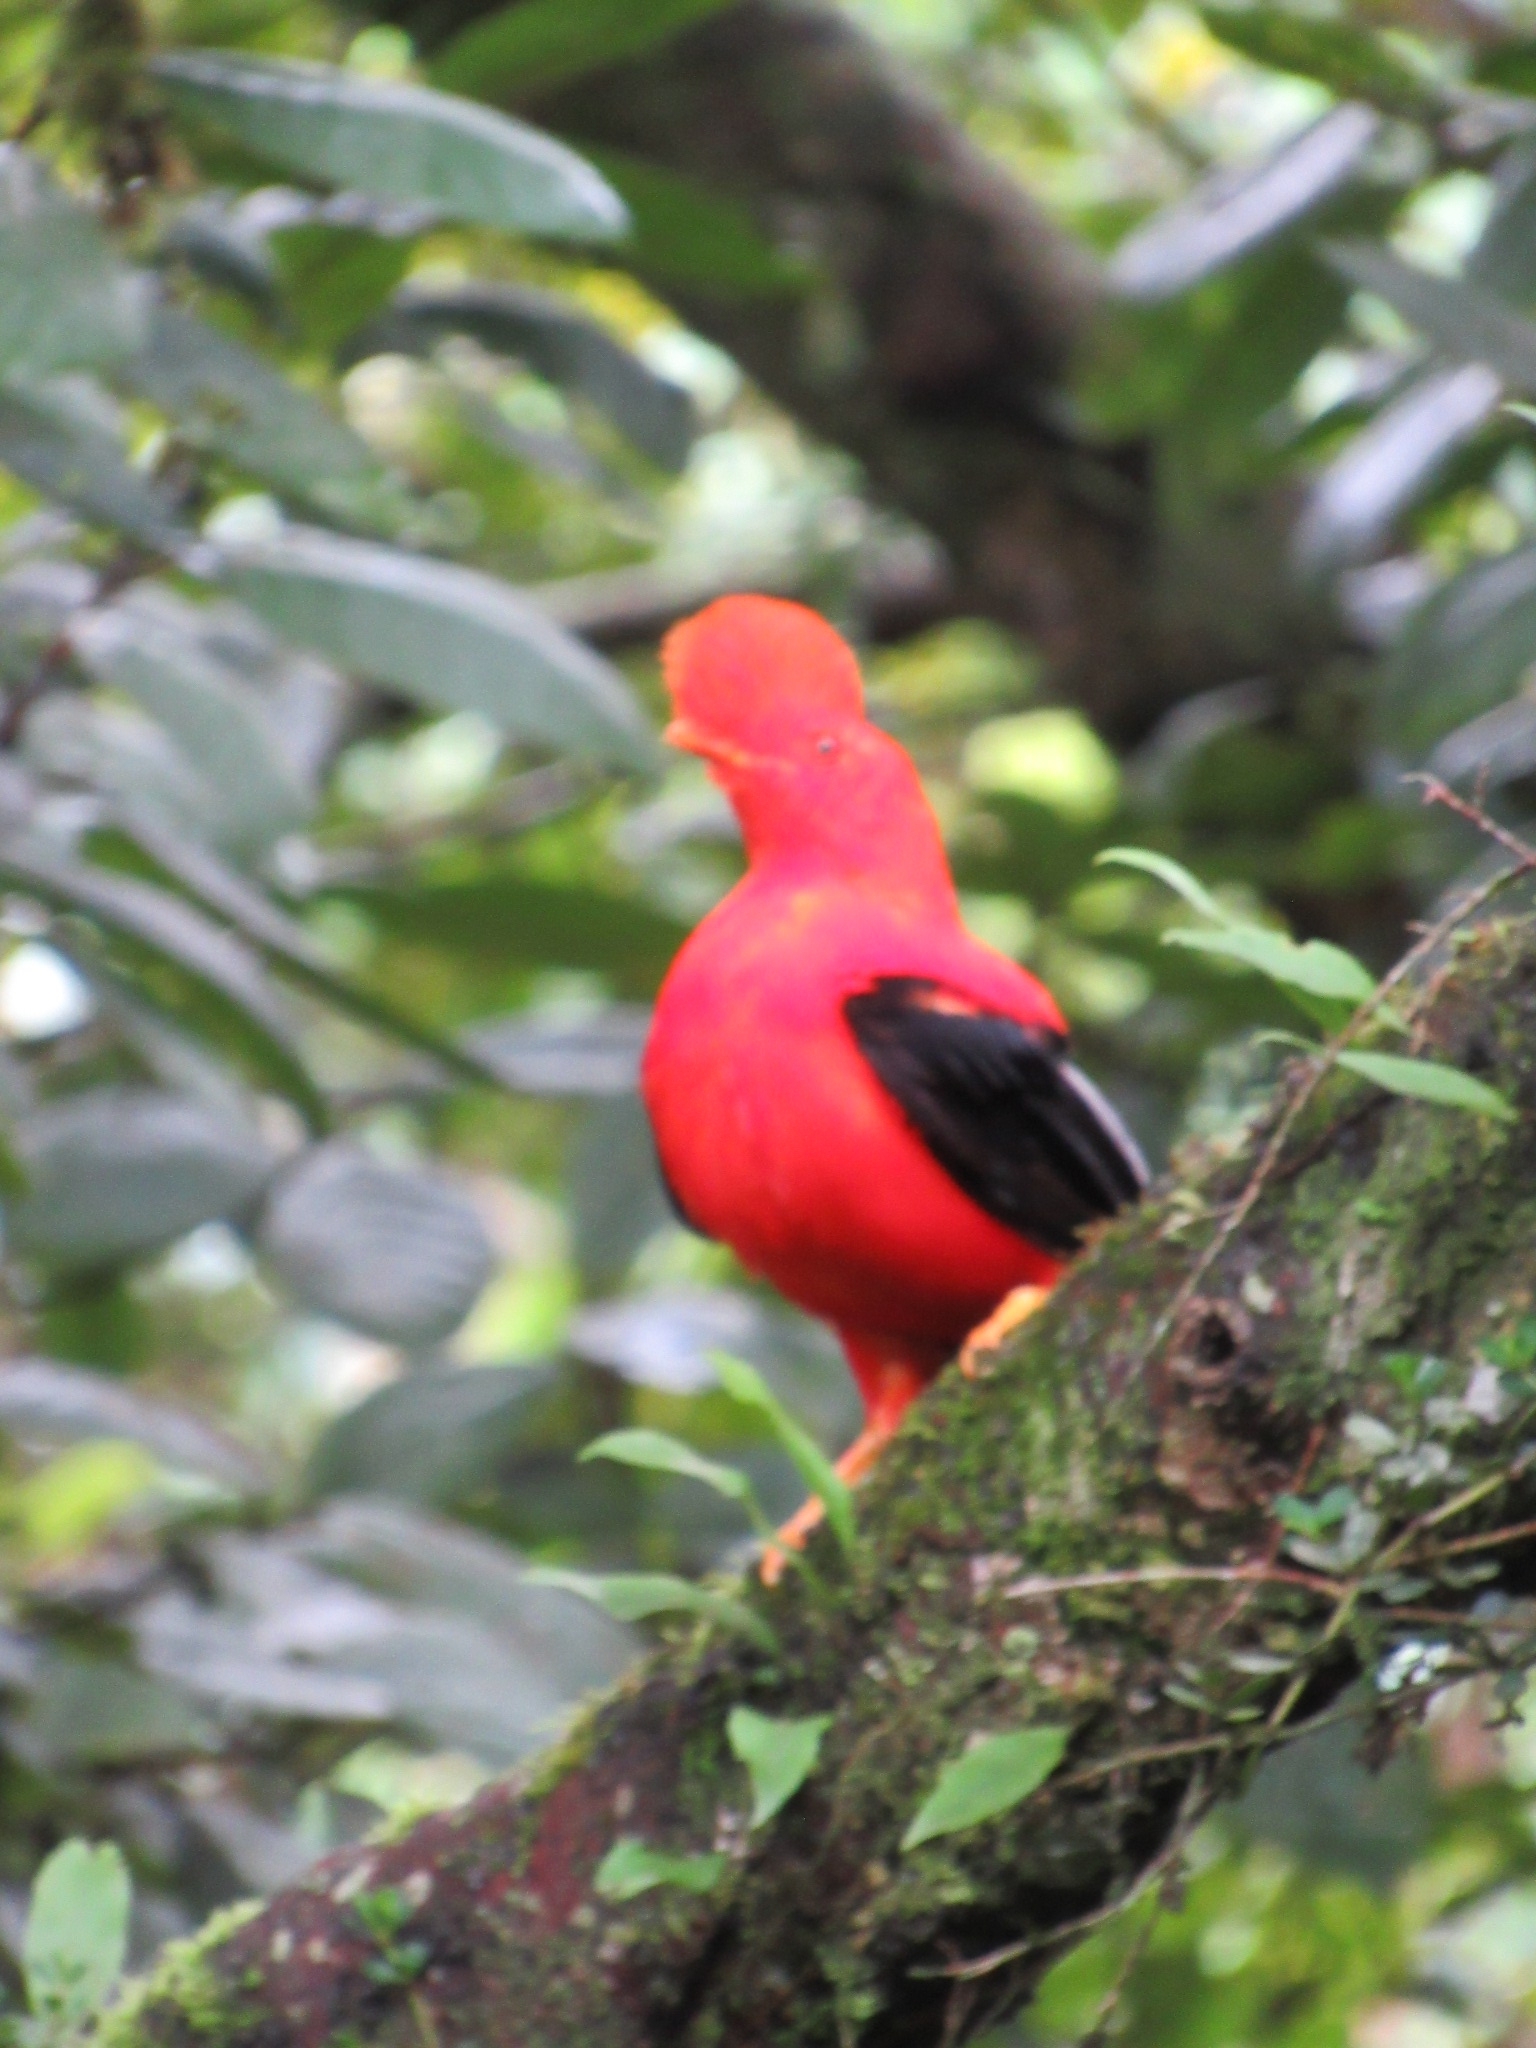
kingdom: Animalia
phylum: Chordata
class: Aves
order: Passeriformes
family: Cotingidae
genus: Rupicola
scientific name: Rupicola peruvianus
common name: Andean cock-of-the-rock
